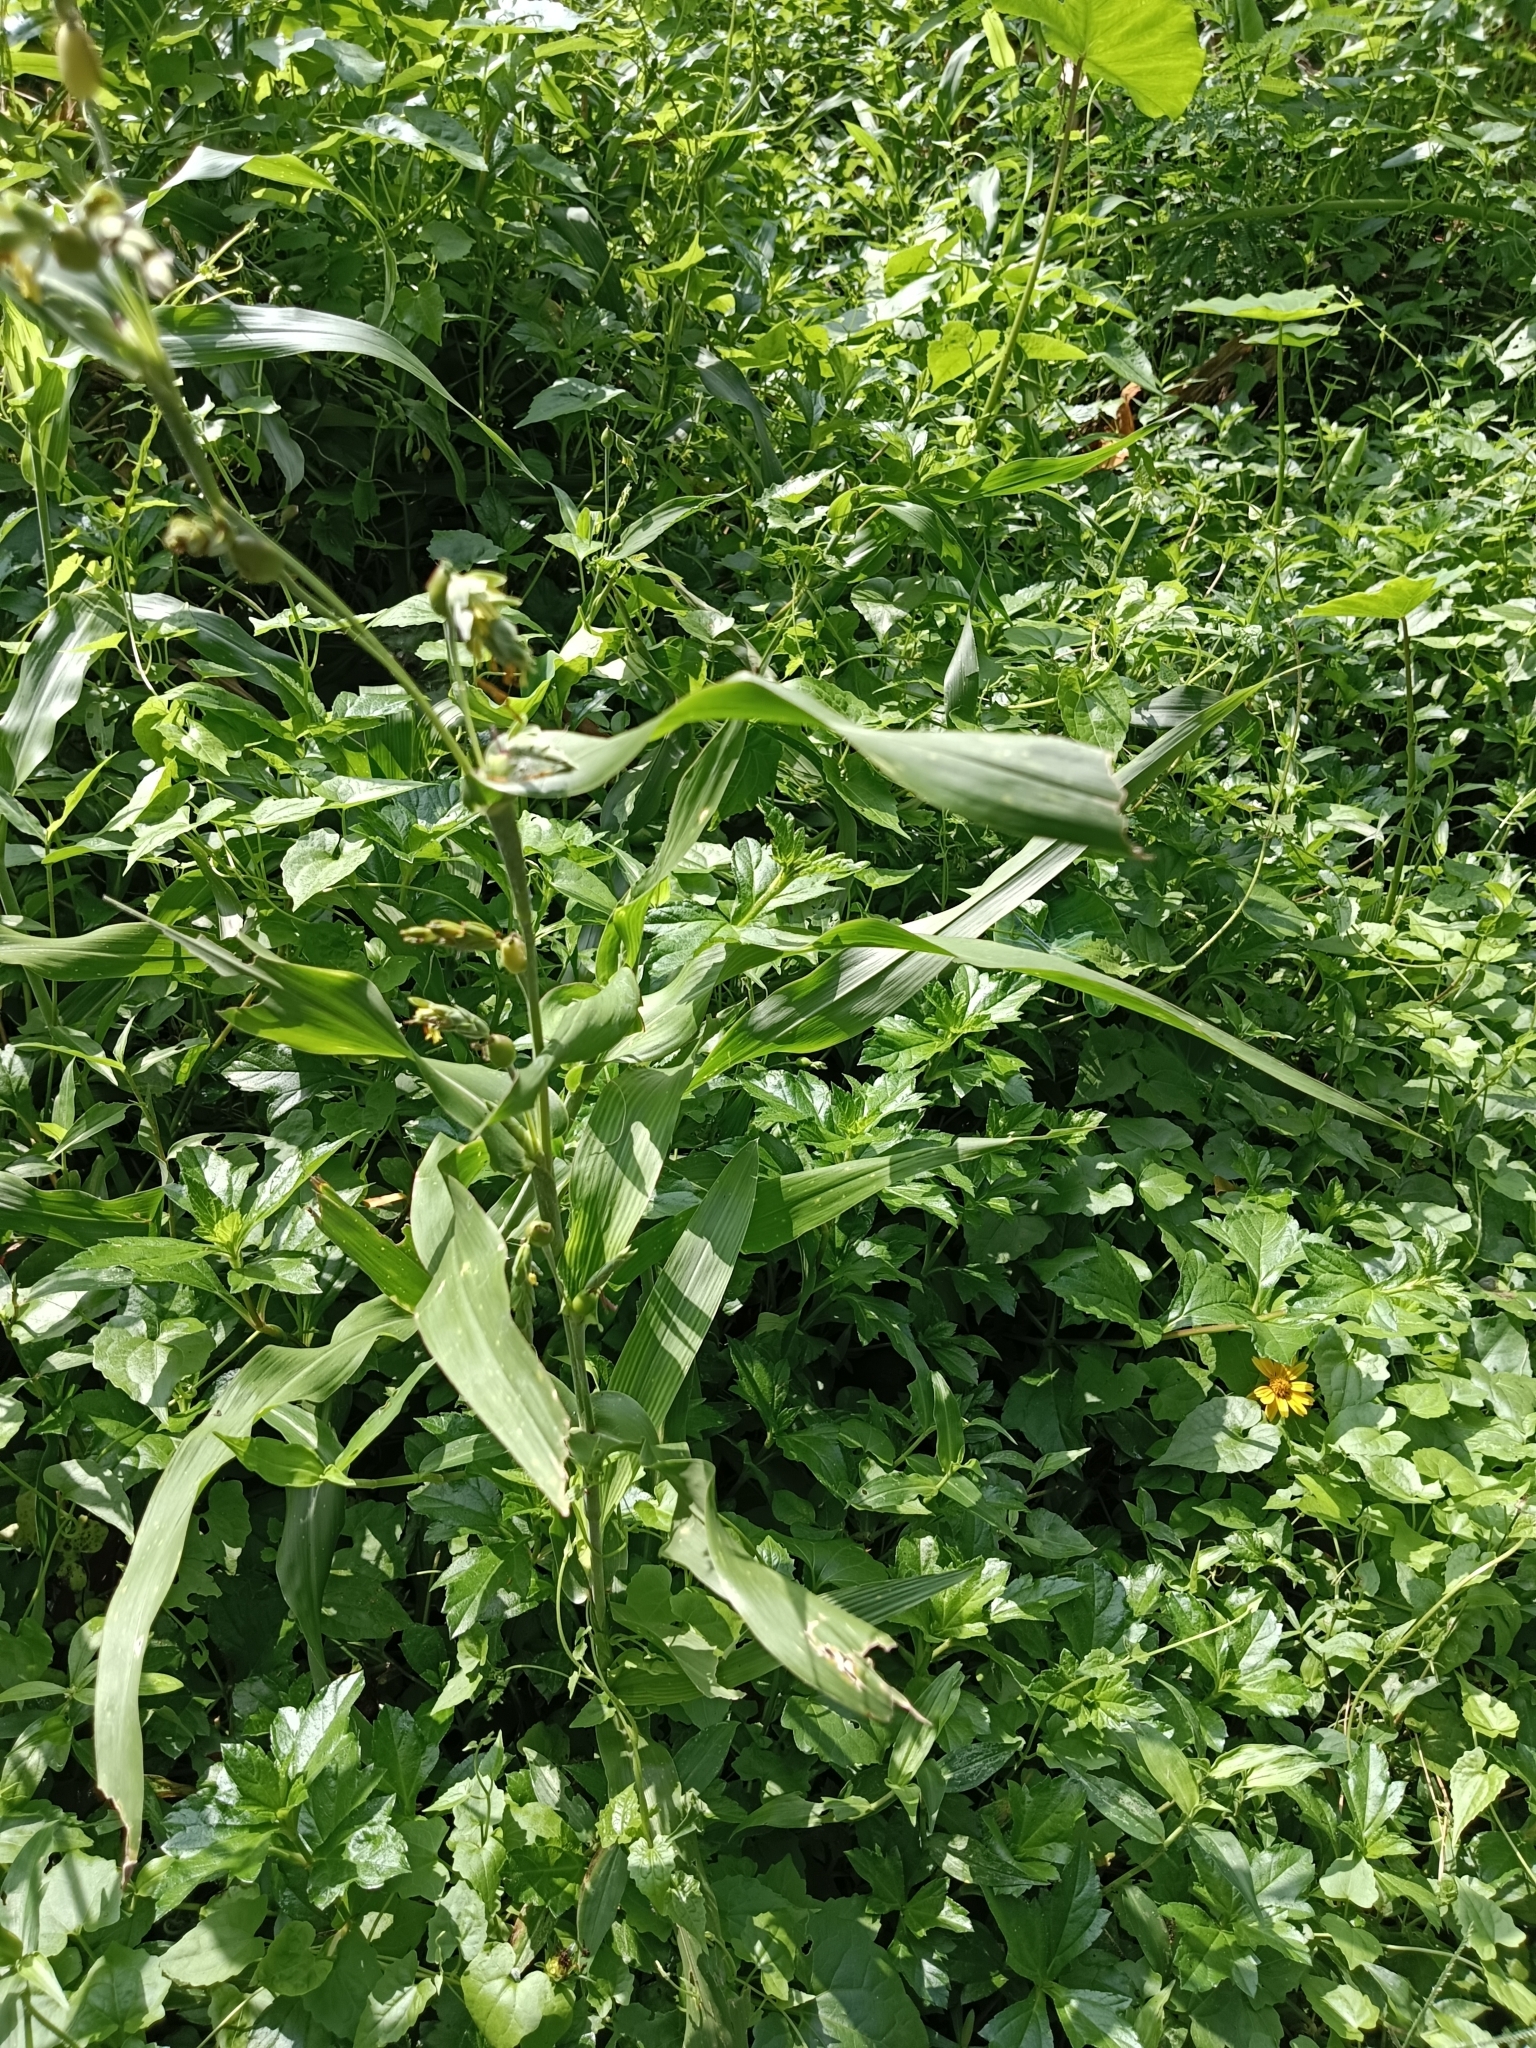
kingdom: Plantae
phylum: Tracheophyta
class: Liliopsida
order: Poales
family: Poaceae
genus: Coix
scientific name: Coix lacryma-jobi
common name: Job's tears
